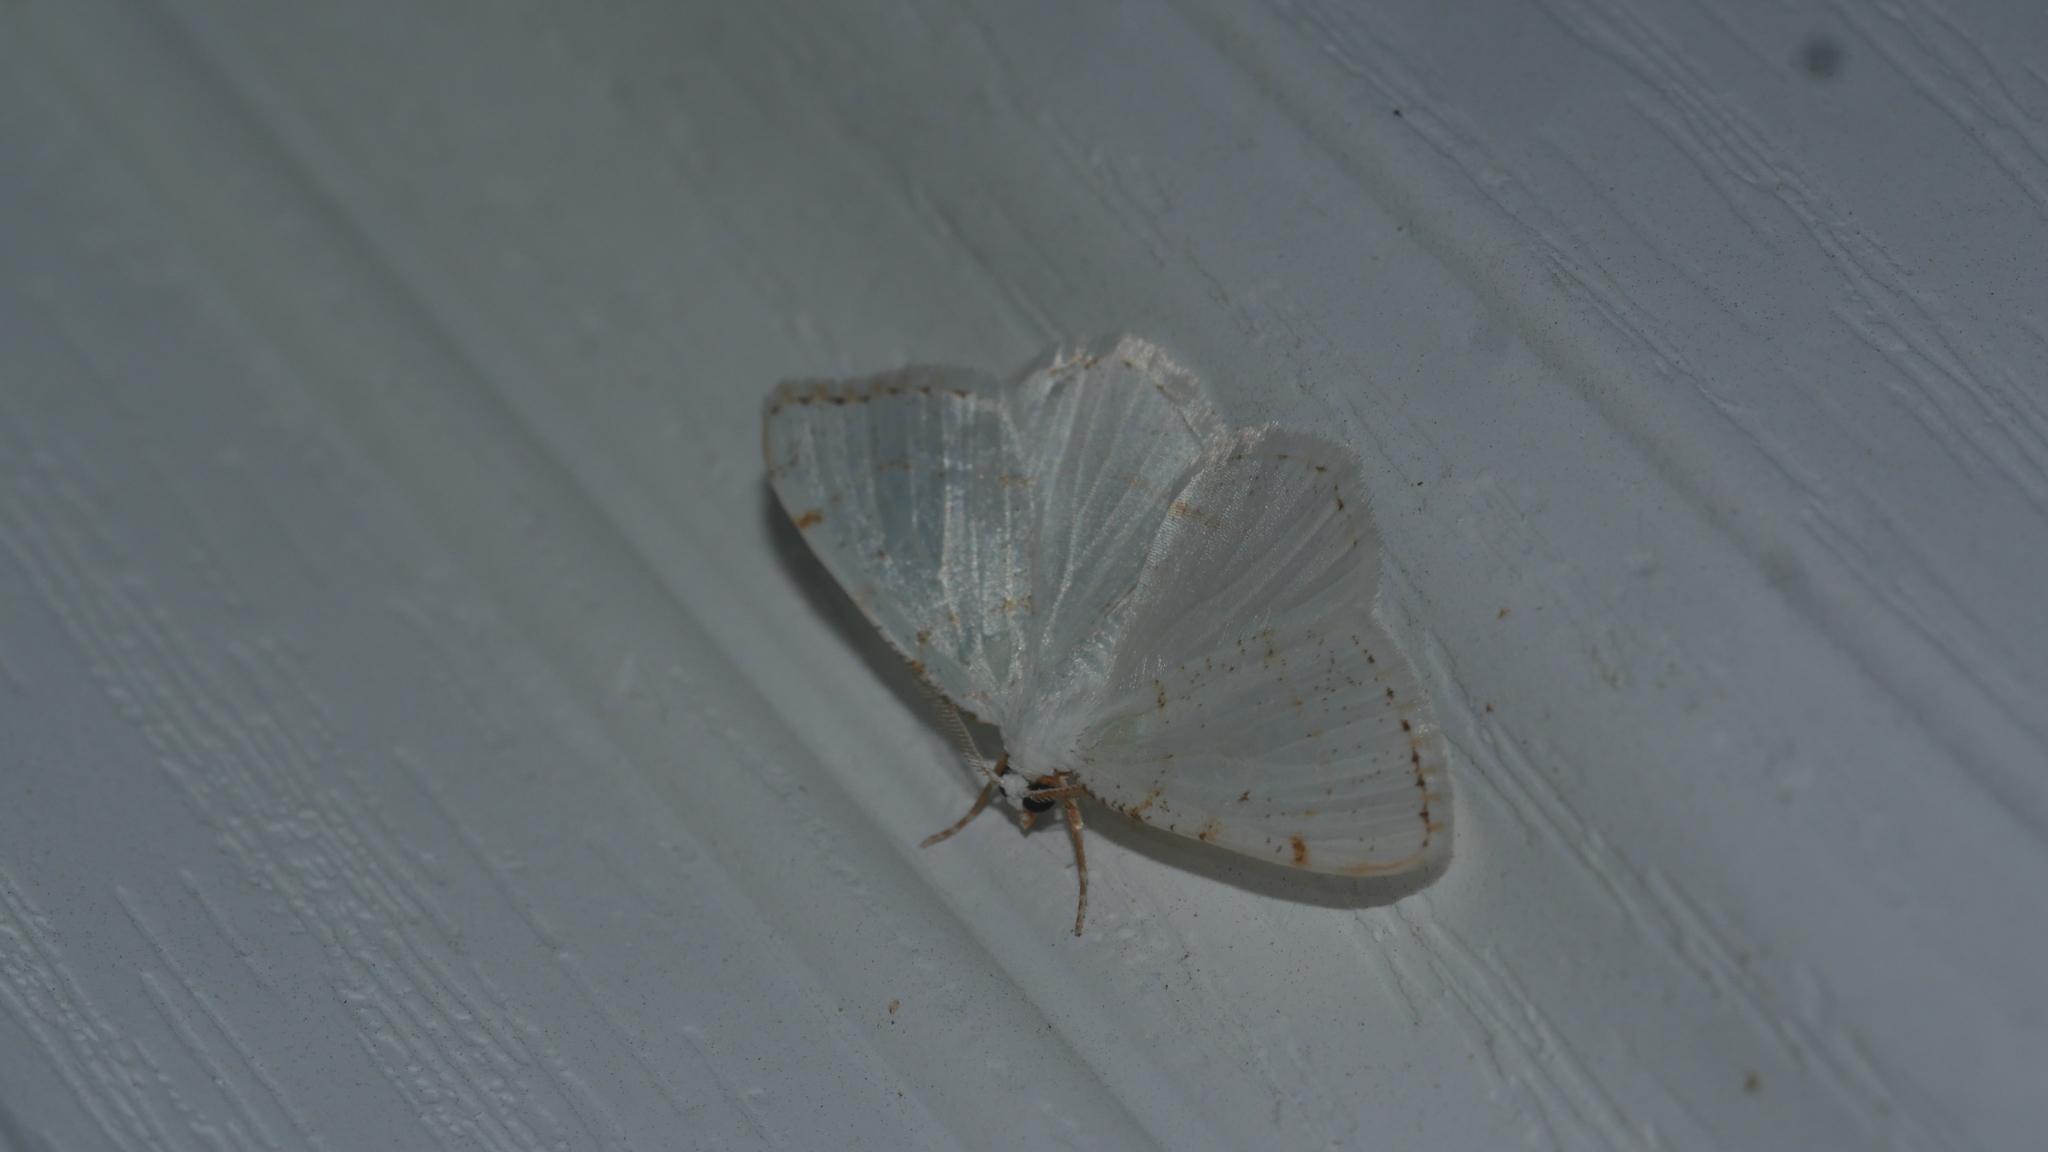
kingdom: Animalia
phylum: Arthropoda
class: Insecta
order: Lepidoptera
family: Geometridae
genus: Macaria
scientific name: Macaria pustularia
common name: Lesser maple spanworm moth
